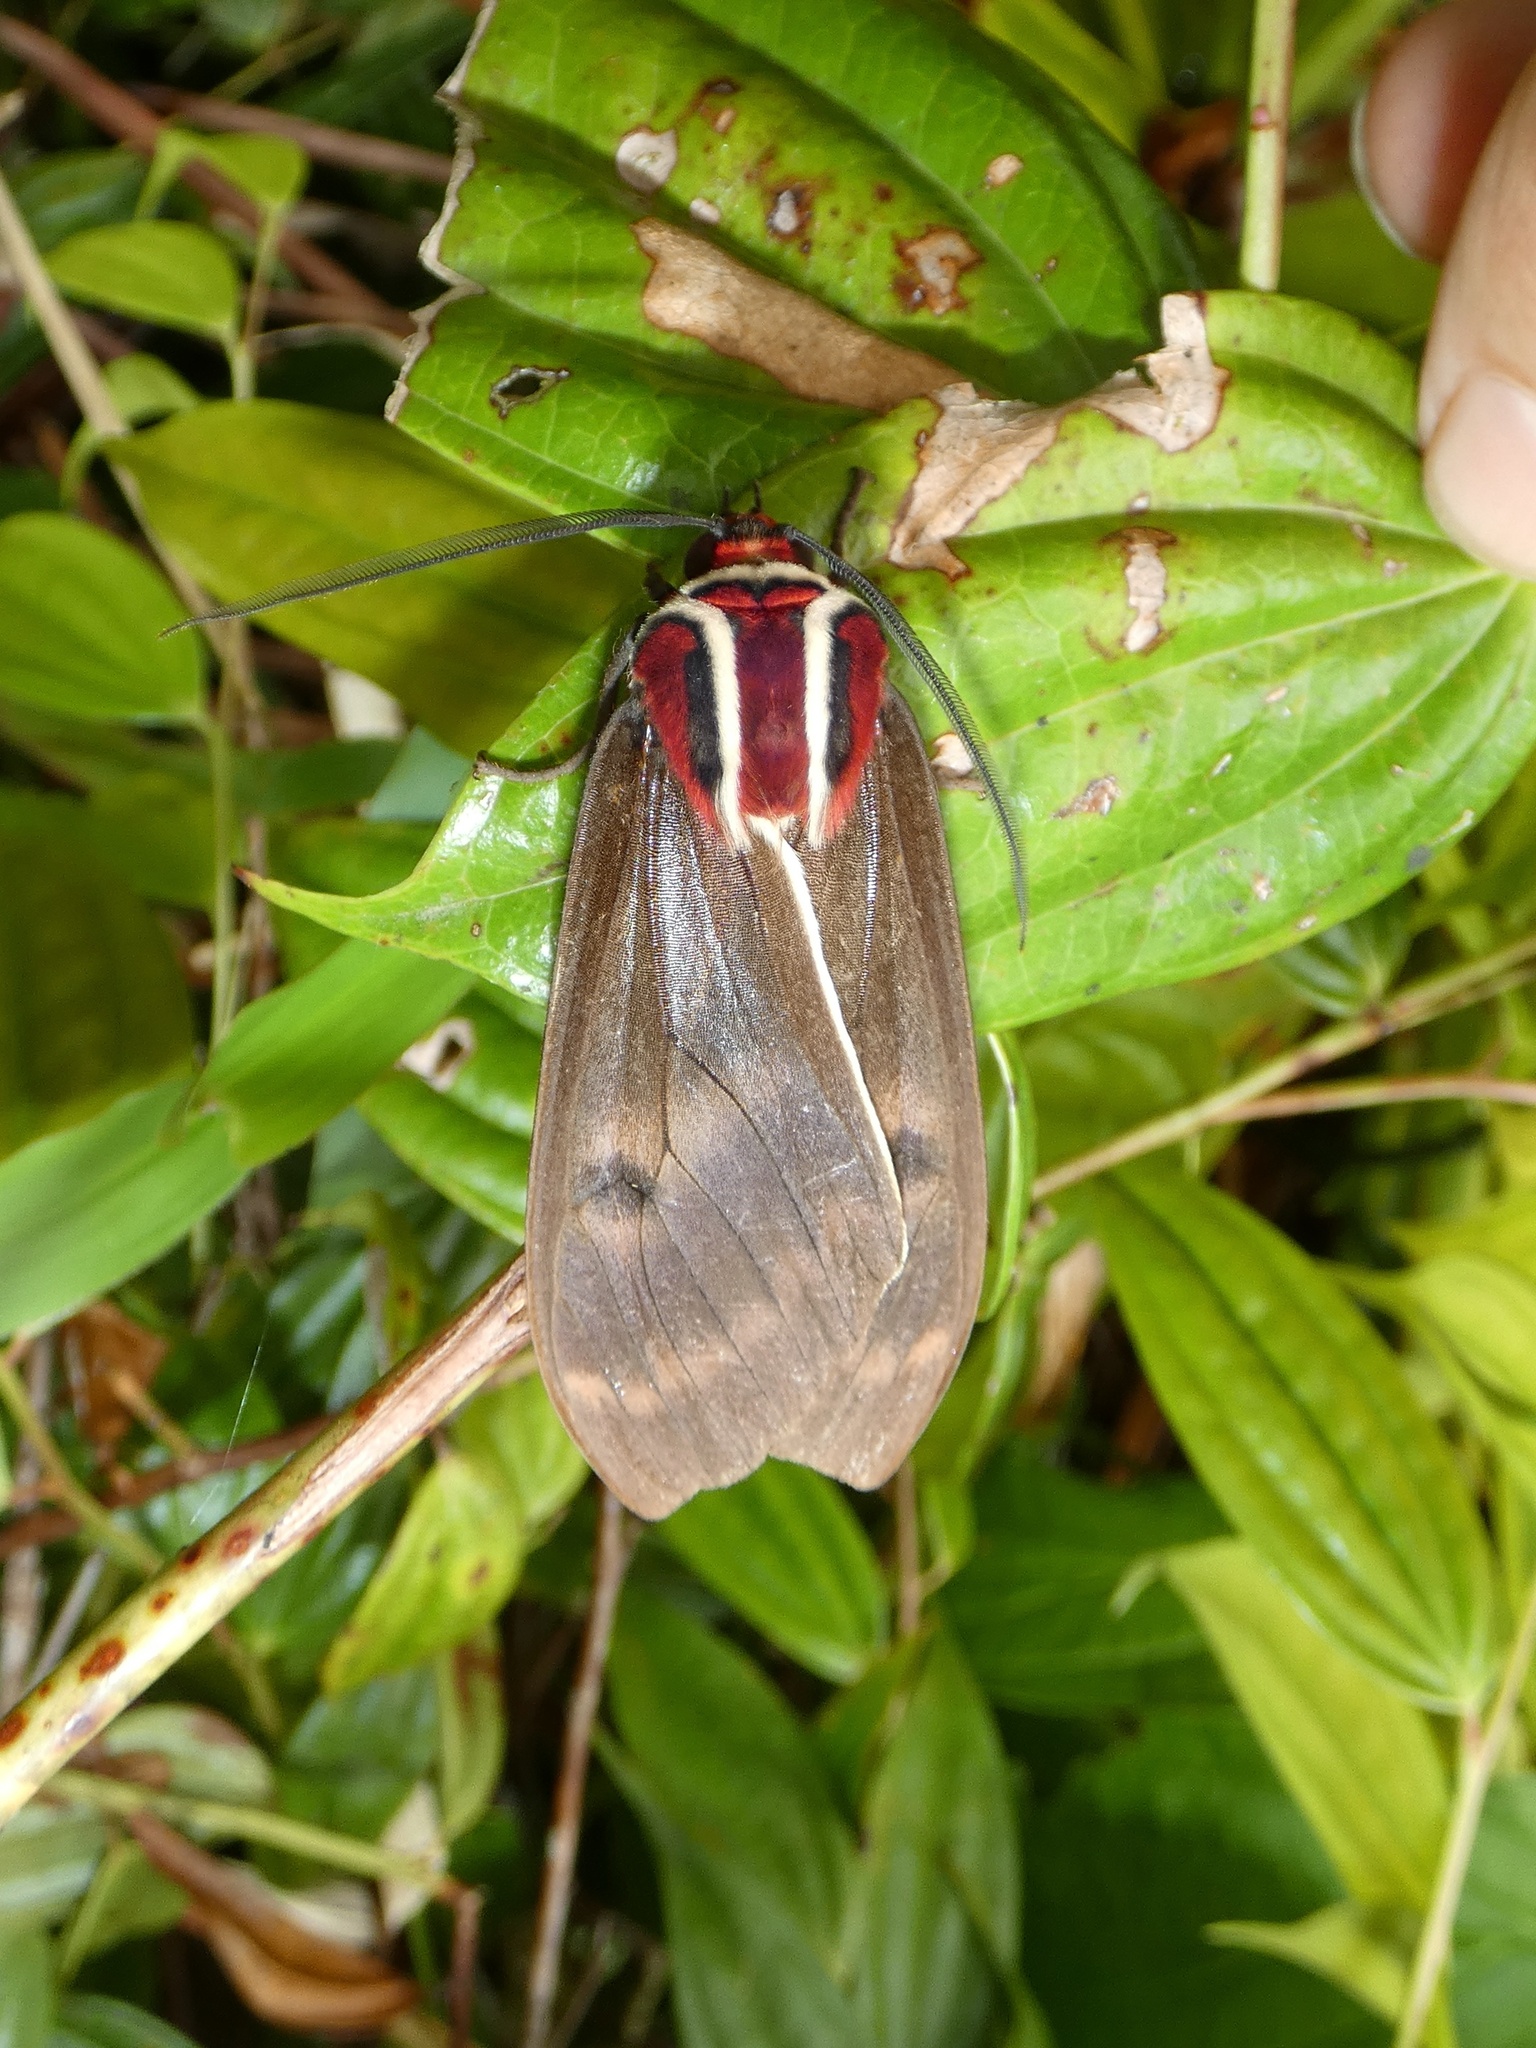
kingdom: Animalia
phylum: Arthropoda
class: Insecta
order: Lepidoptera
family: Erebidae
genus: Amastus
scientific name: Amastus episcotosia
